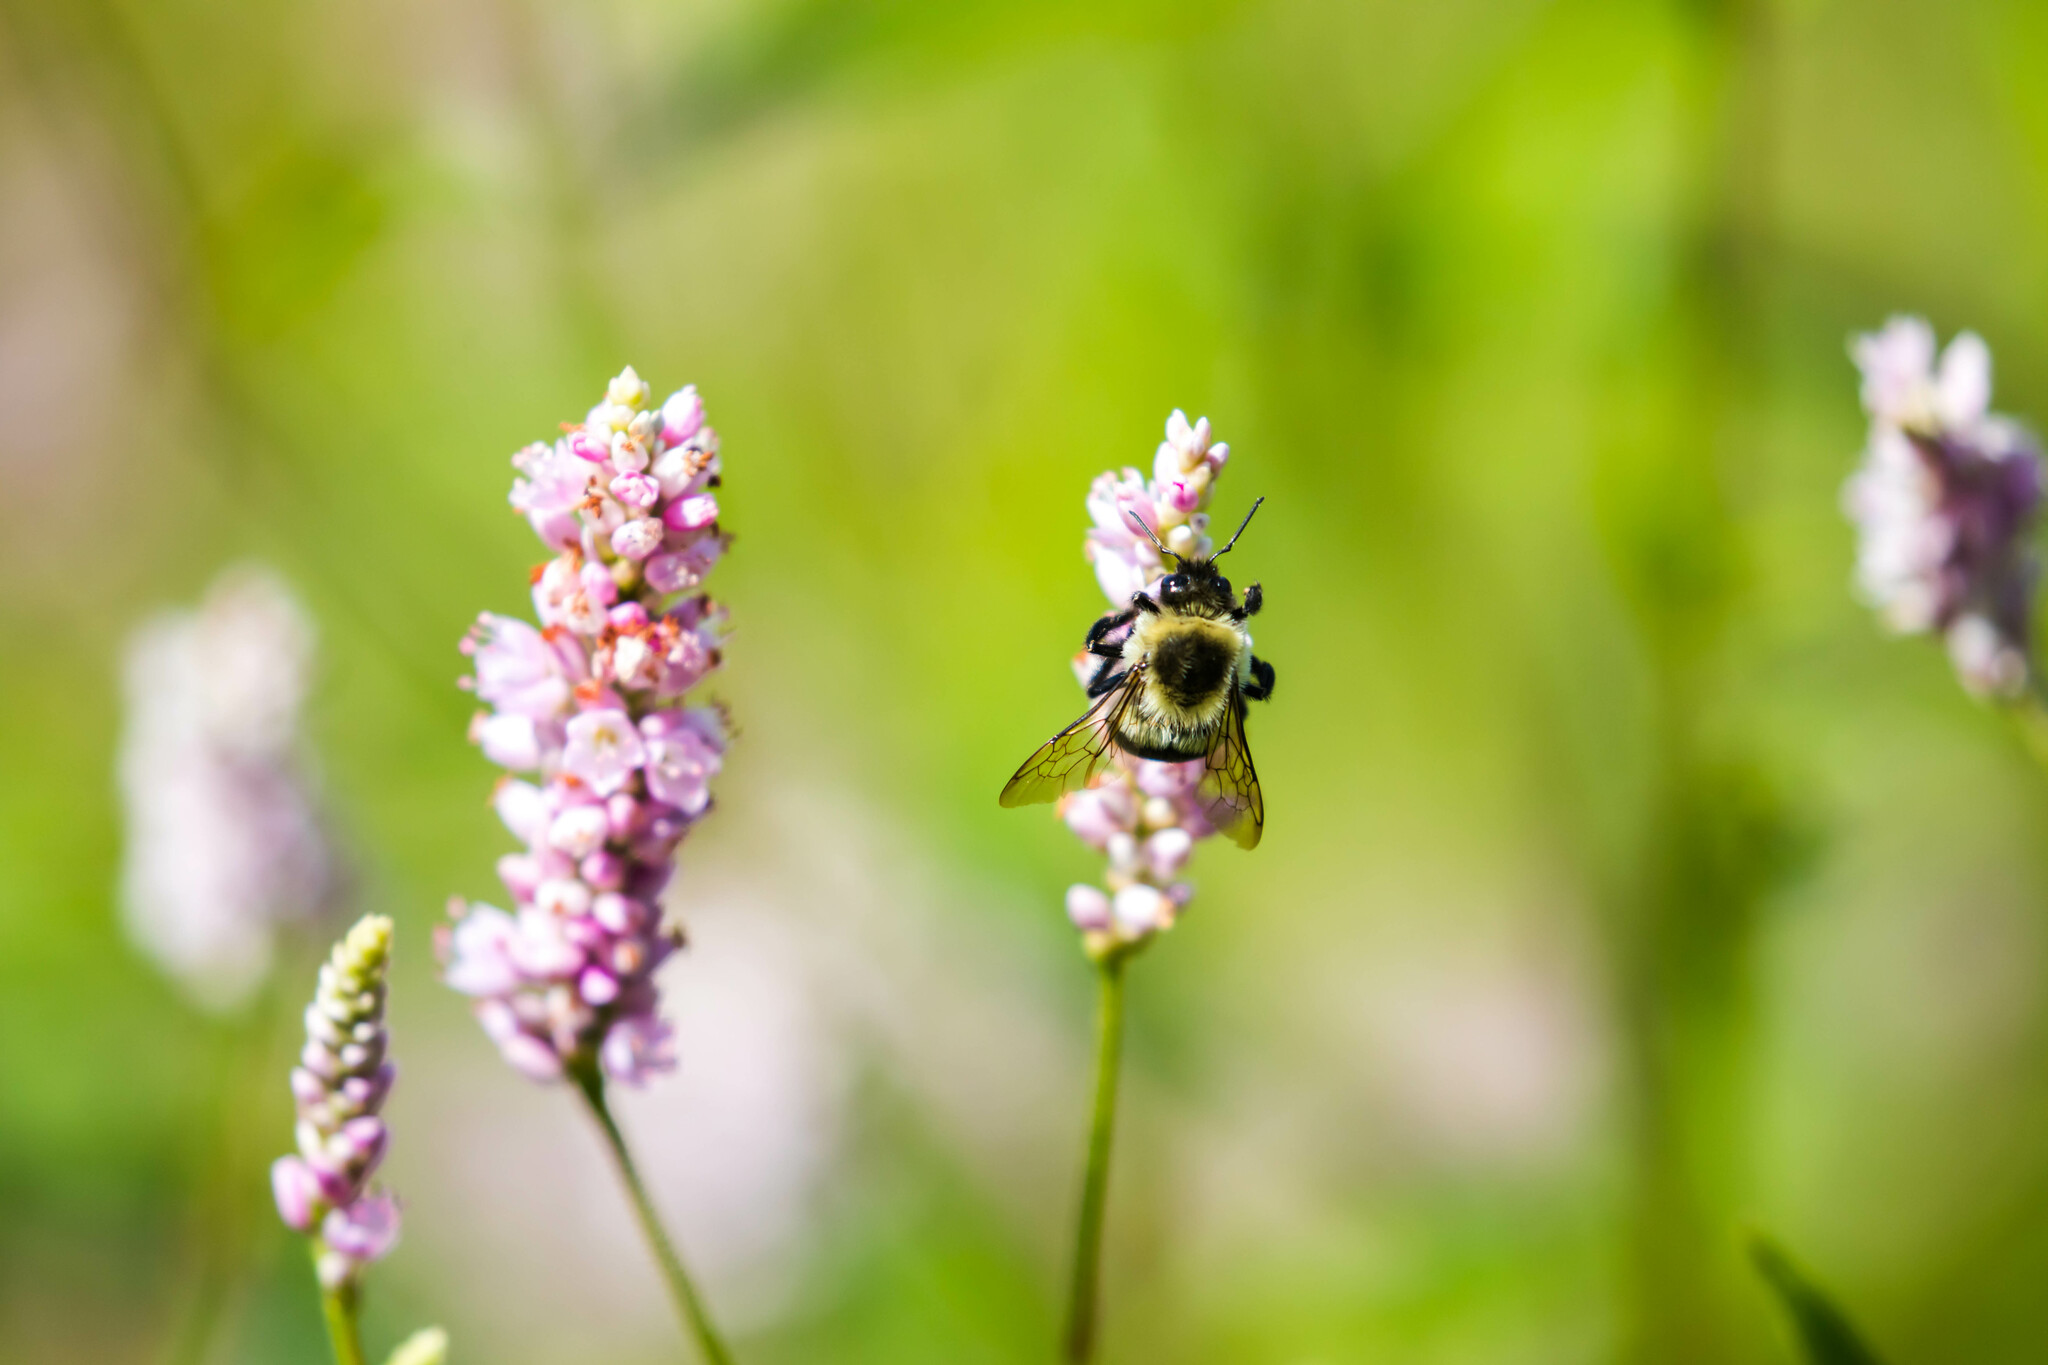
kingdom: Animalia
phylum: Arthropoda
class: Insecta
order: Hymenoptera
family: Apidae
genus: Bombus
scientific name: Bombus impatiens
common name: Common eastern bumble bee
